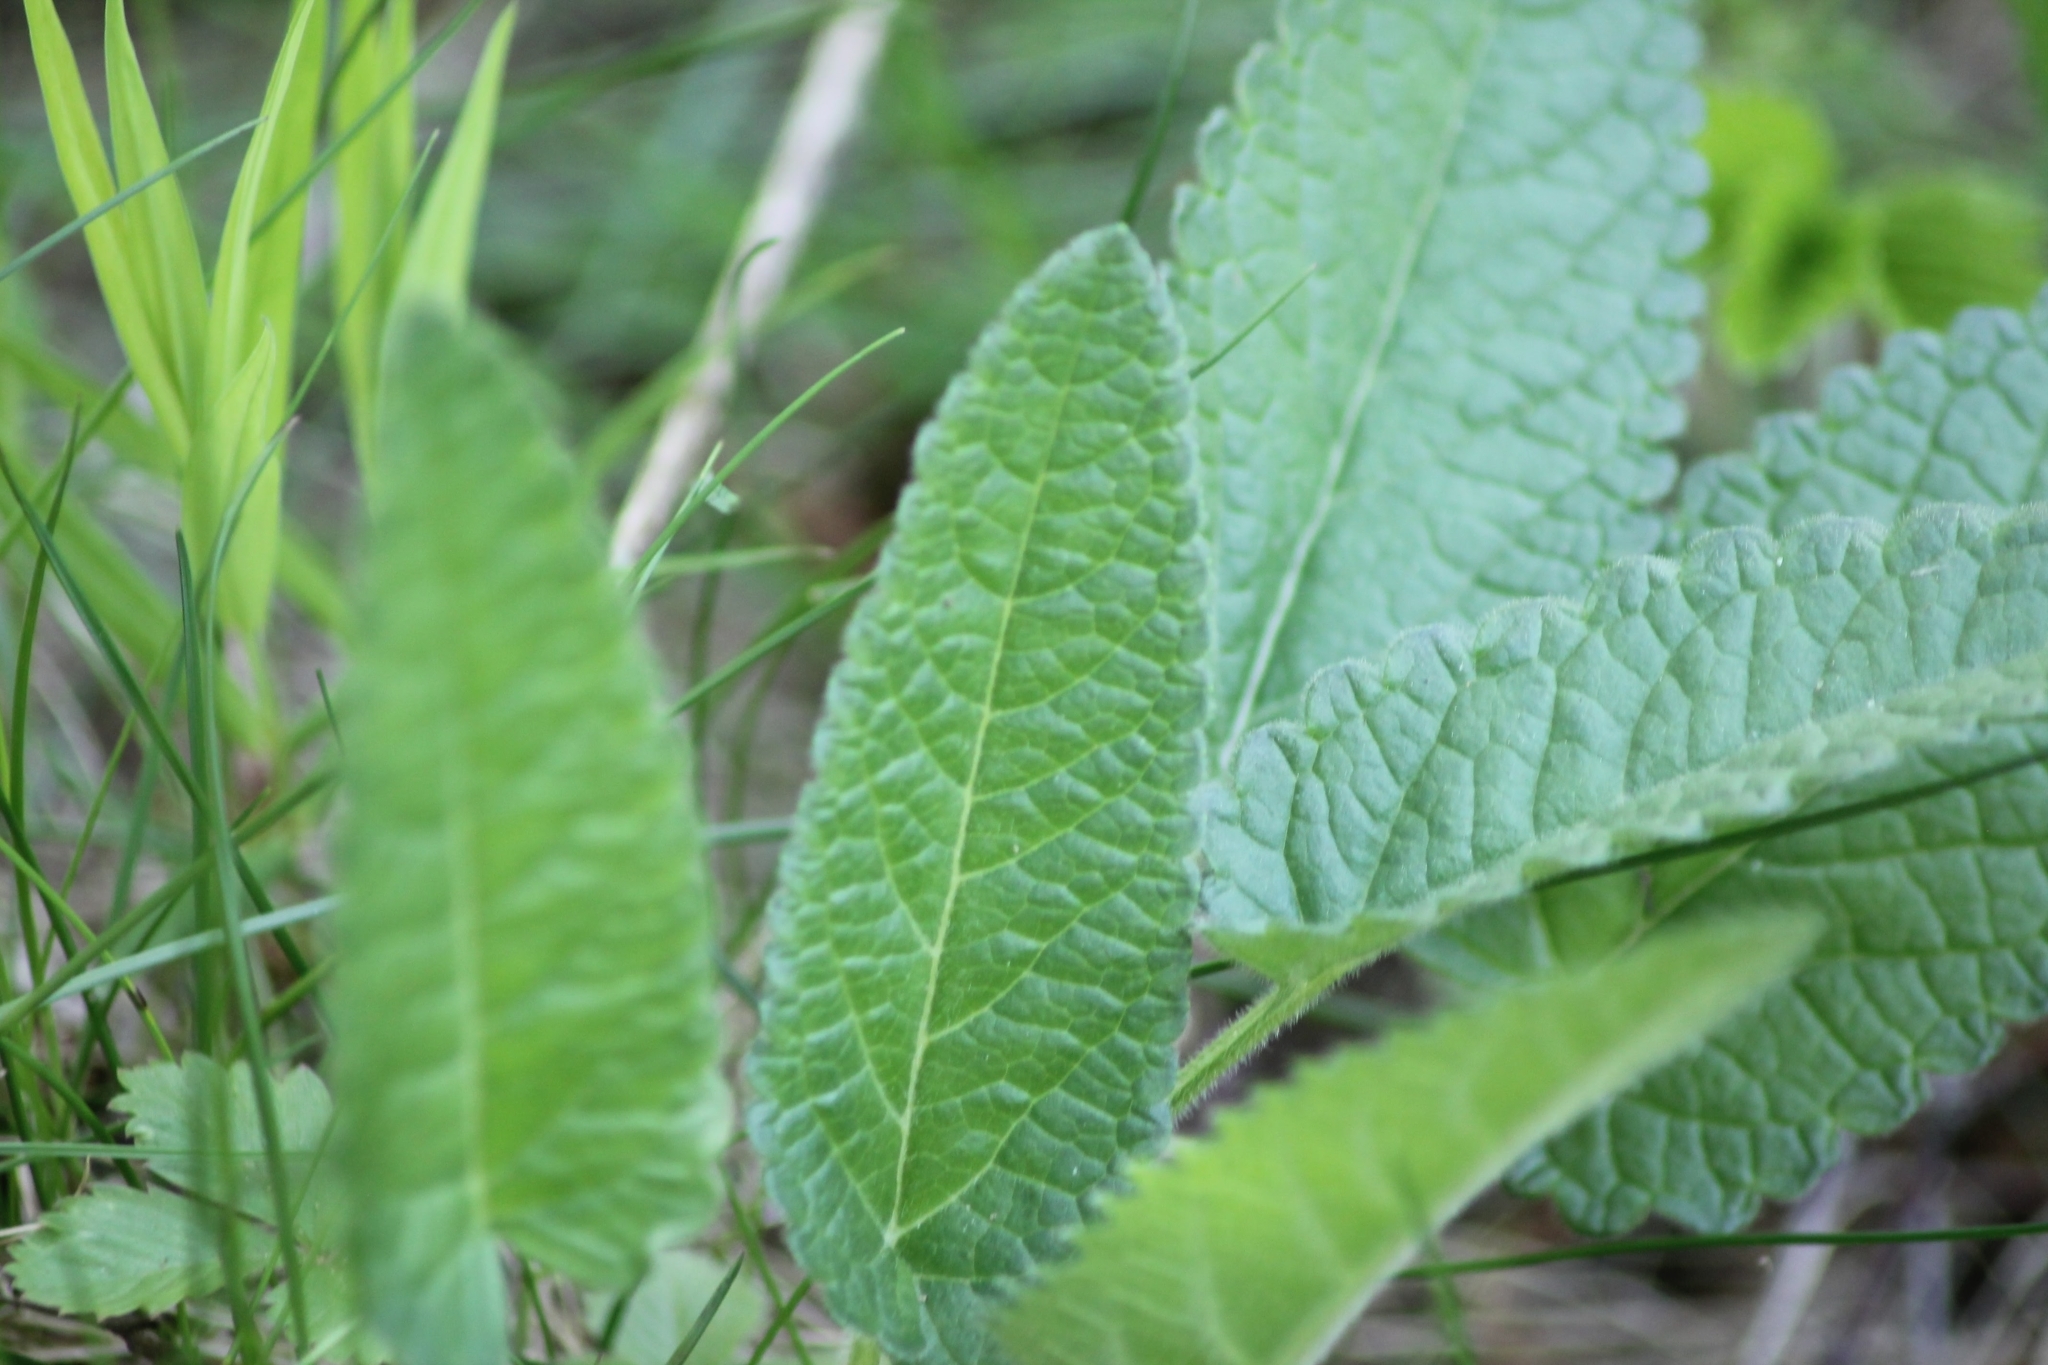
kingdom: Plantae
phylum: Tracheophyta
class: Magnoliopsida
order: Lamiales
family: Lamiaceae
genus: Betonica
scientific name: Betonica officinalis
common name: Bishop's-wort
